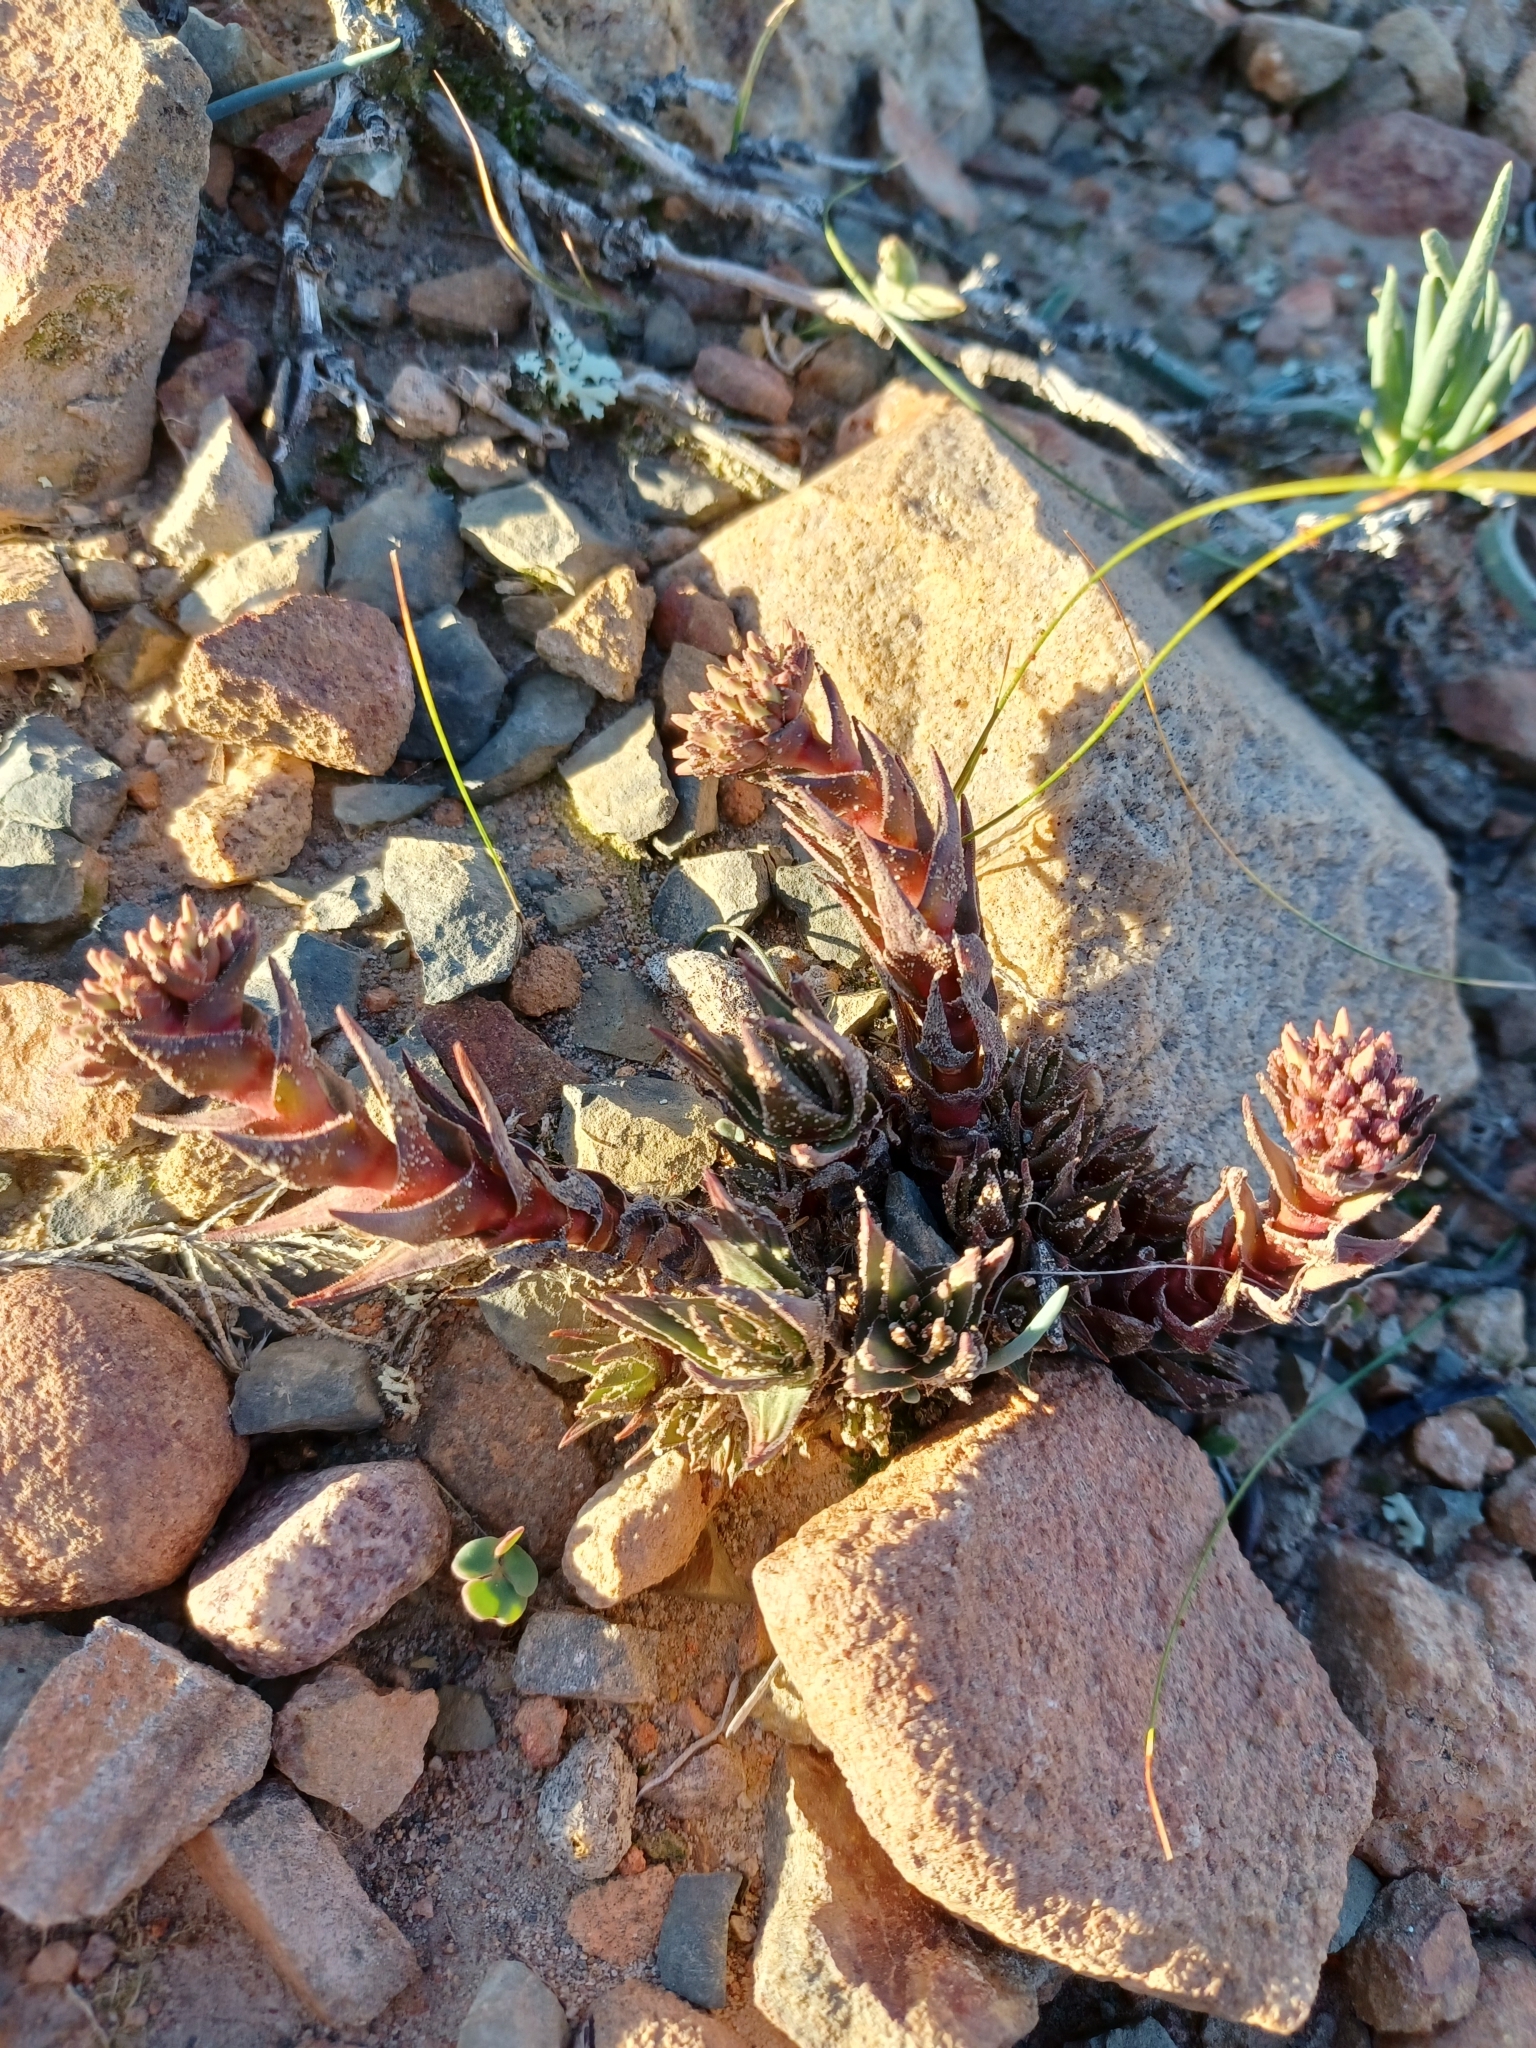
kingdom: Plantae
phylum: Tracheophyta
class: Magnoliopsida
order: Saxifragales
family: Crassulaceae
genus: Crassula
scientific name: Crassula alpestris
